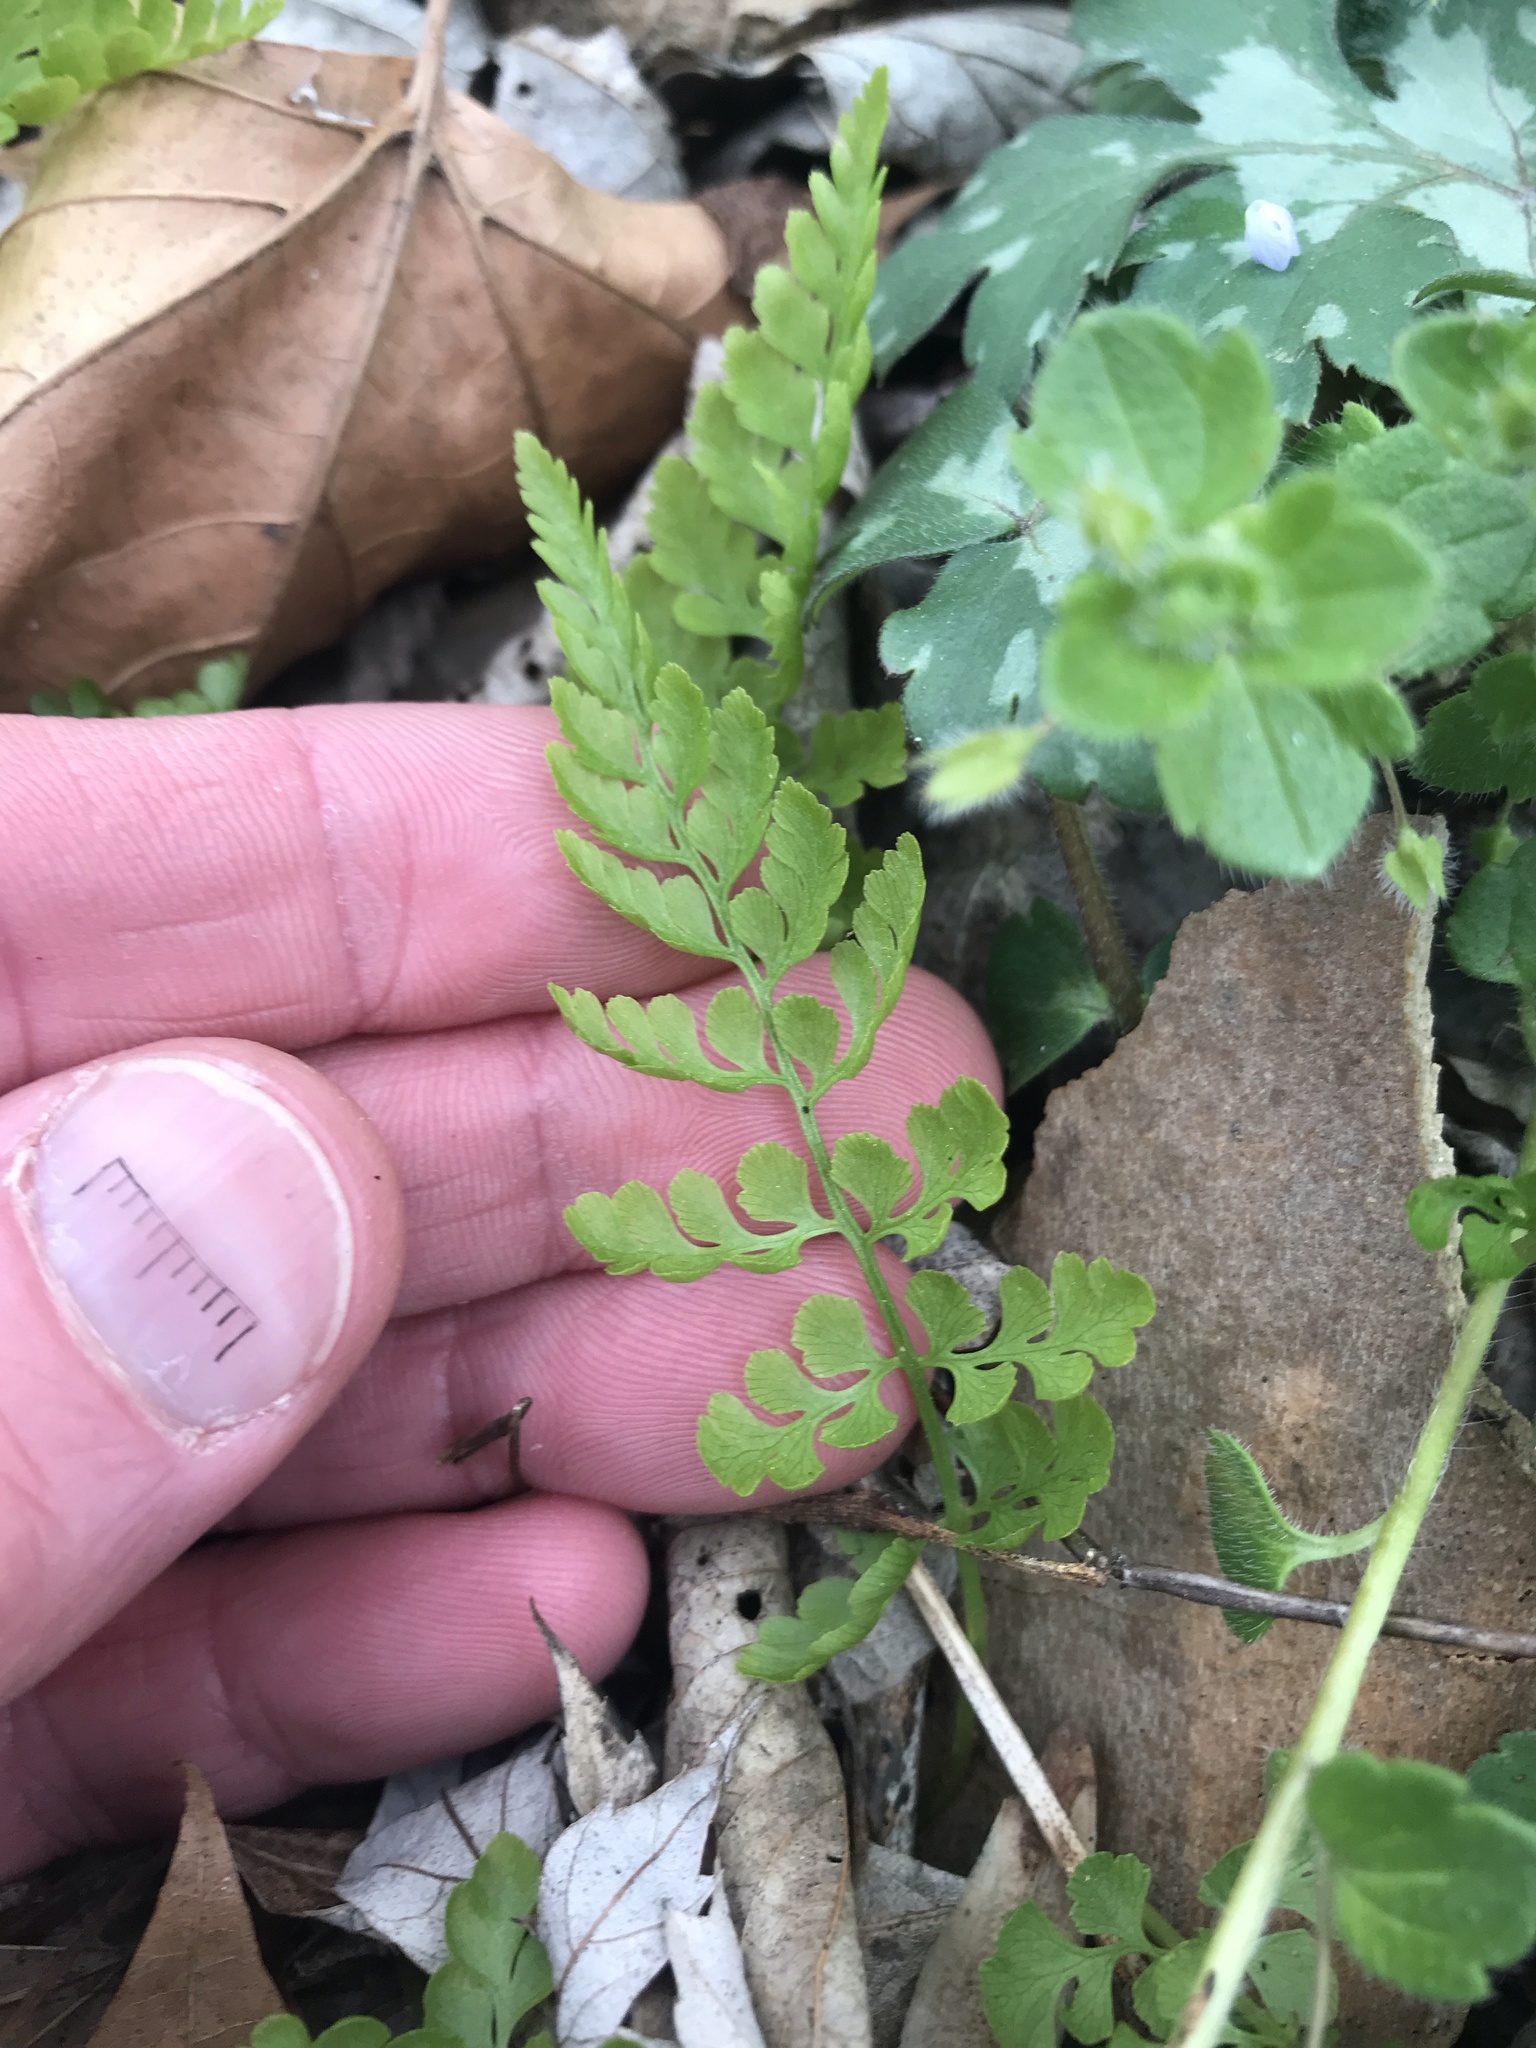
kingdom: Plantae
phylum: Tracheophyta
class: Polypodiopsida
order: Polypodiales
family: Cystopteridaceae
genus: Cystopteris
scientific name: Cystopteris protrusa
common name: Lowland brittle fern
